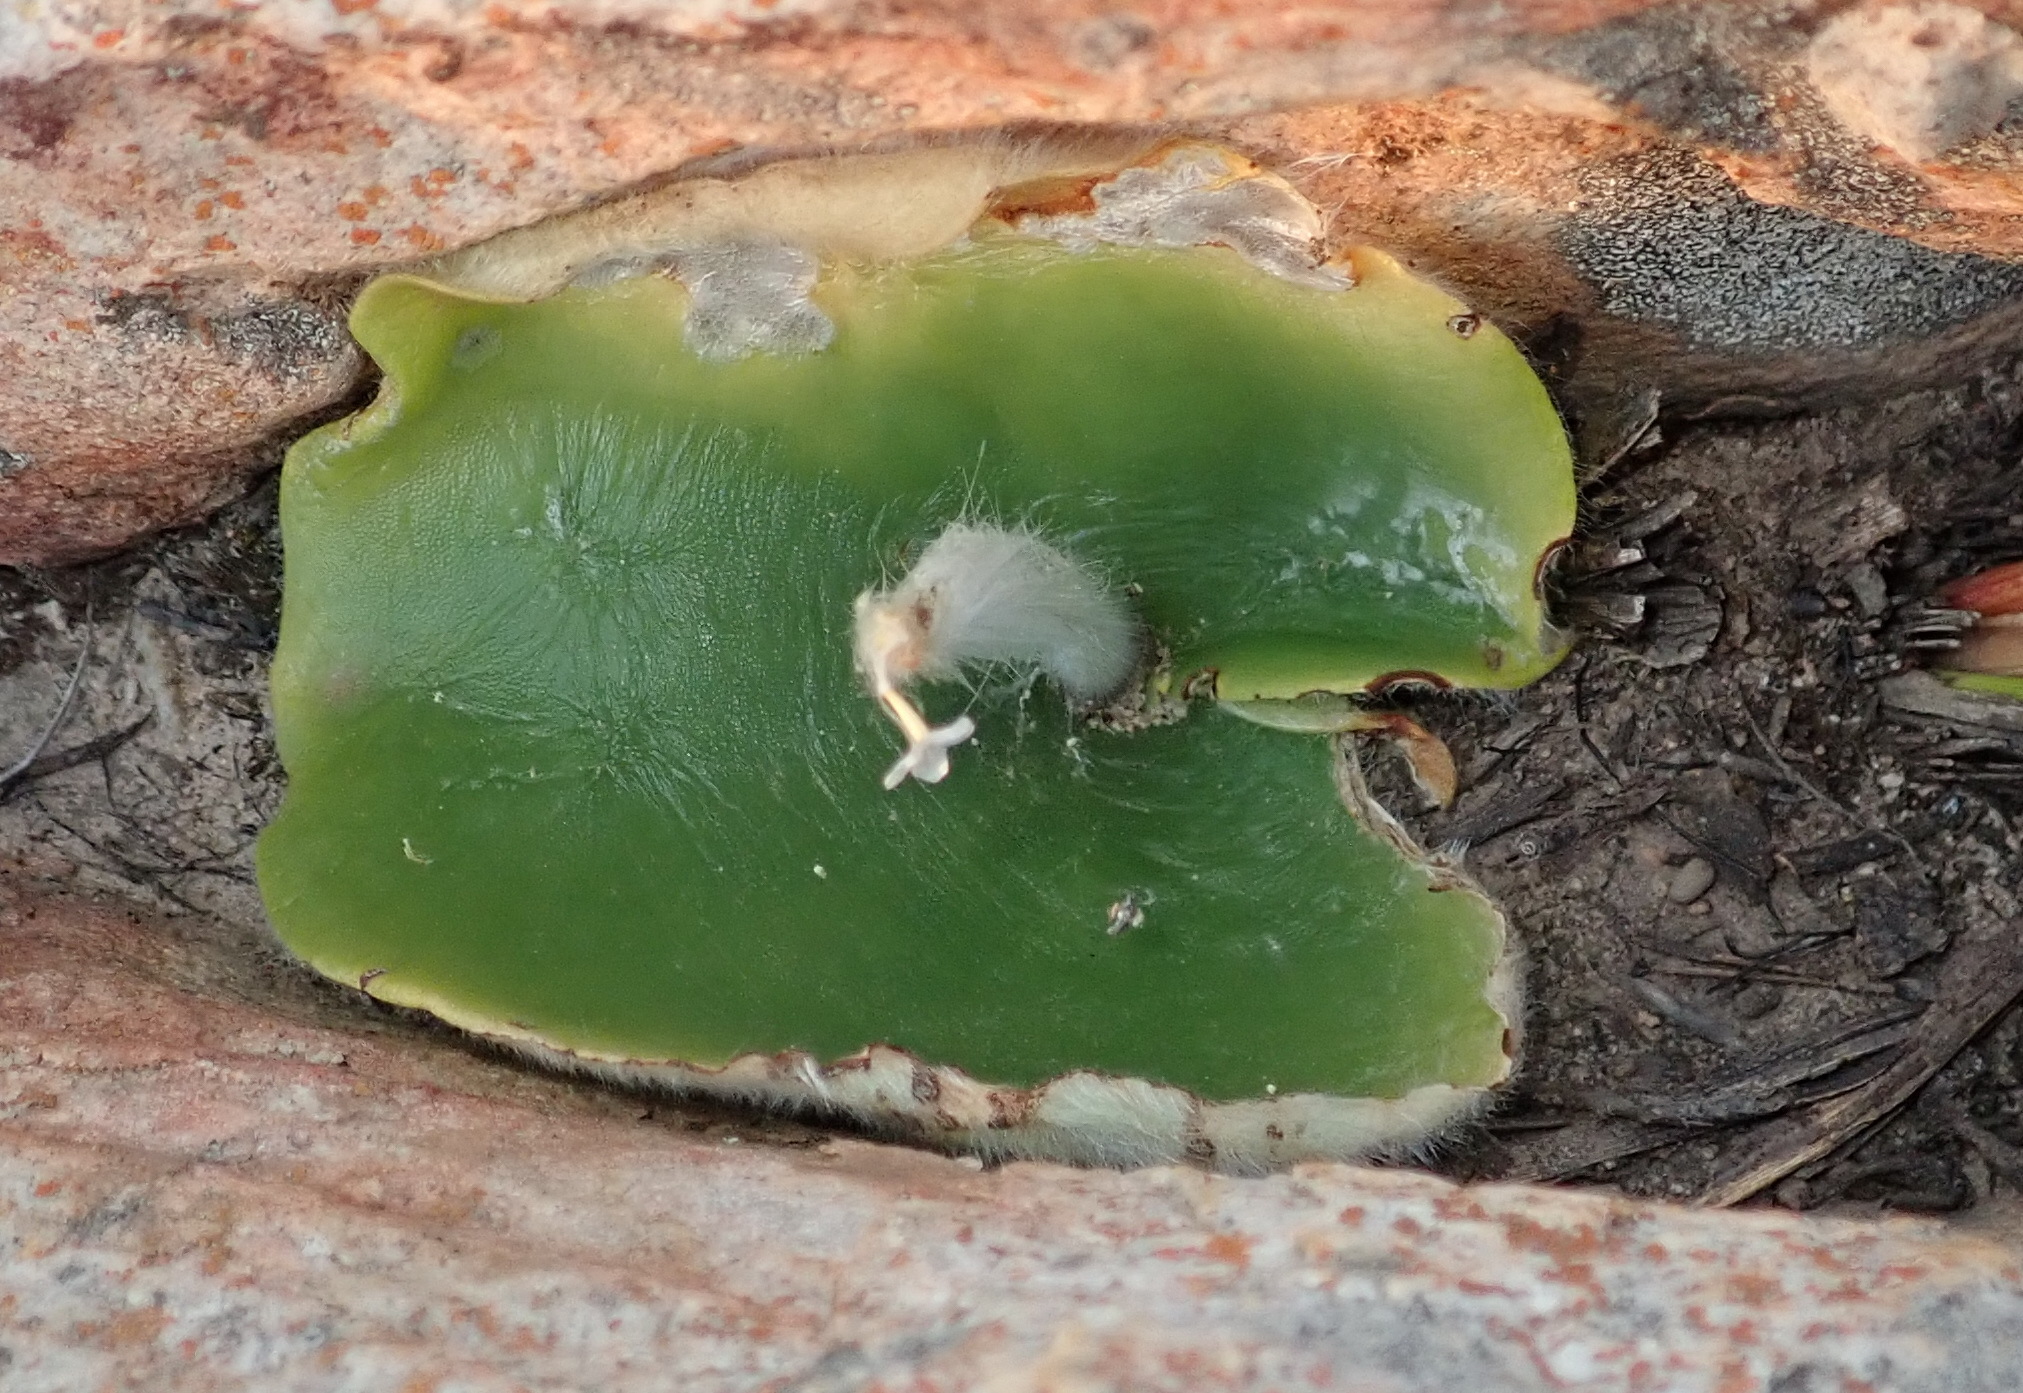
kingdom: Plantae
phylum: Tracheophyta
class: Liliopsida
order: Asparagales
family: Orchidaceae
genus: Holothrix
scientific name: Holothrix pilosa
